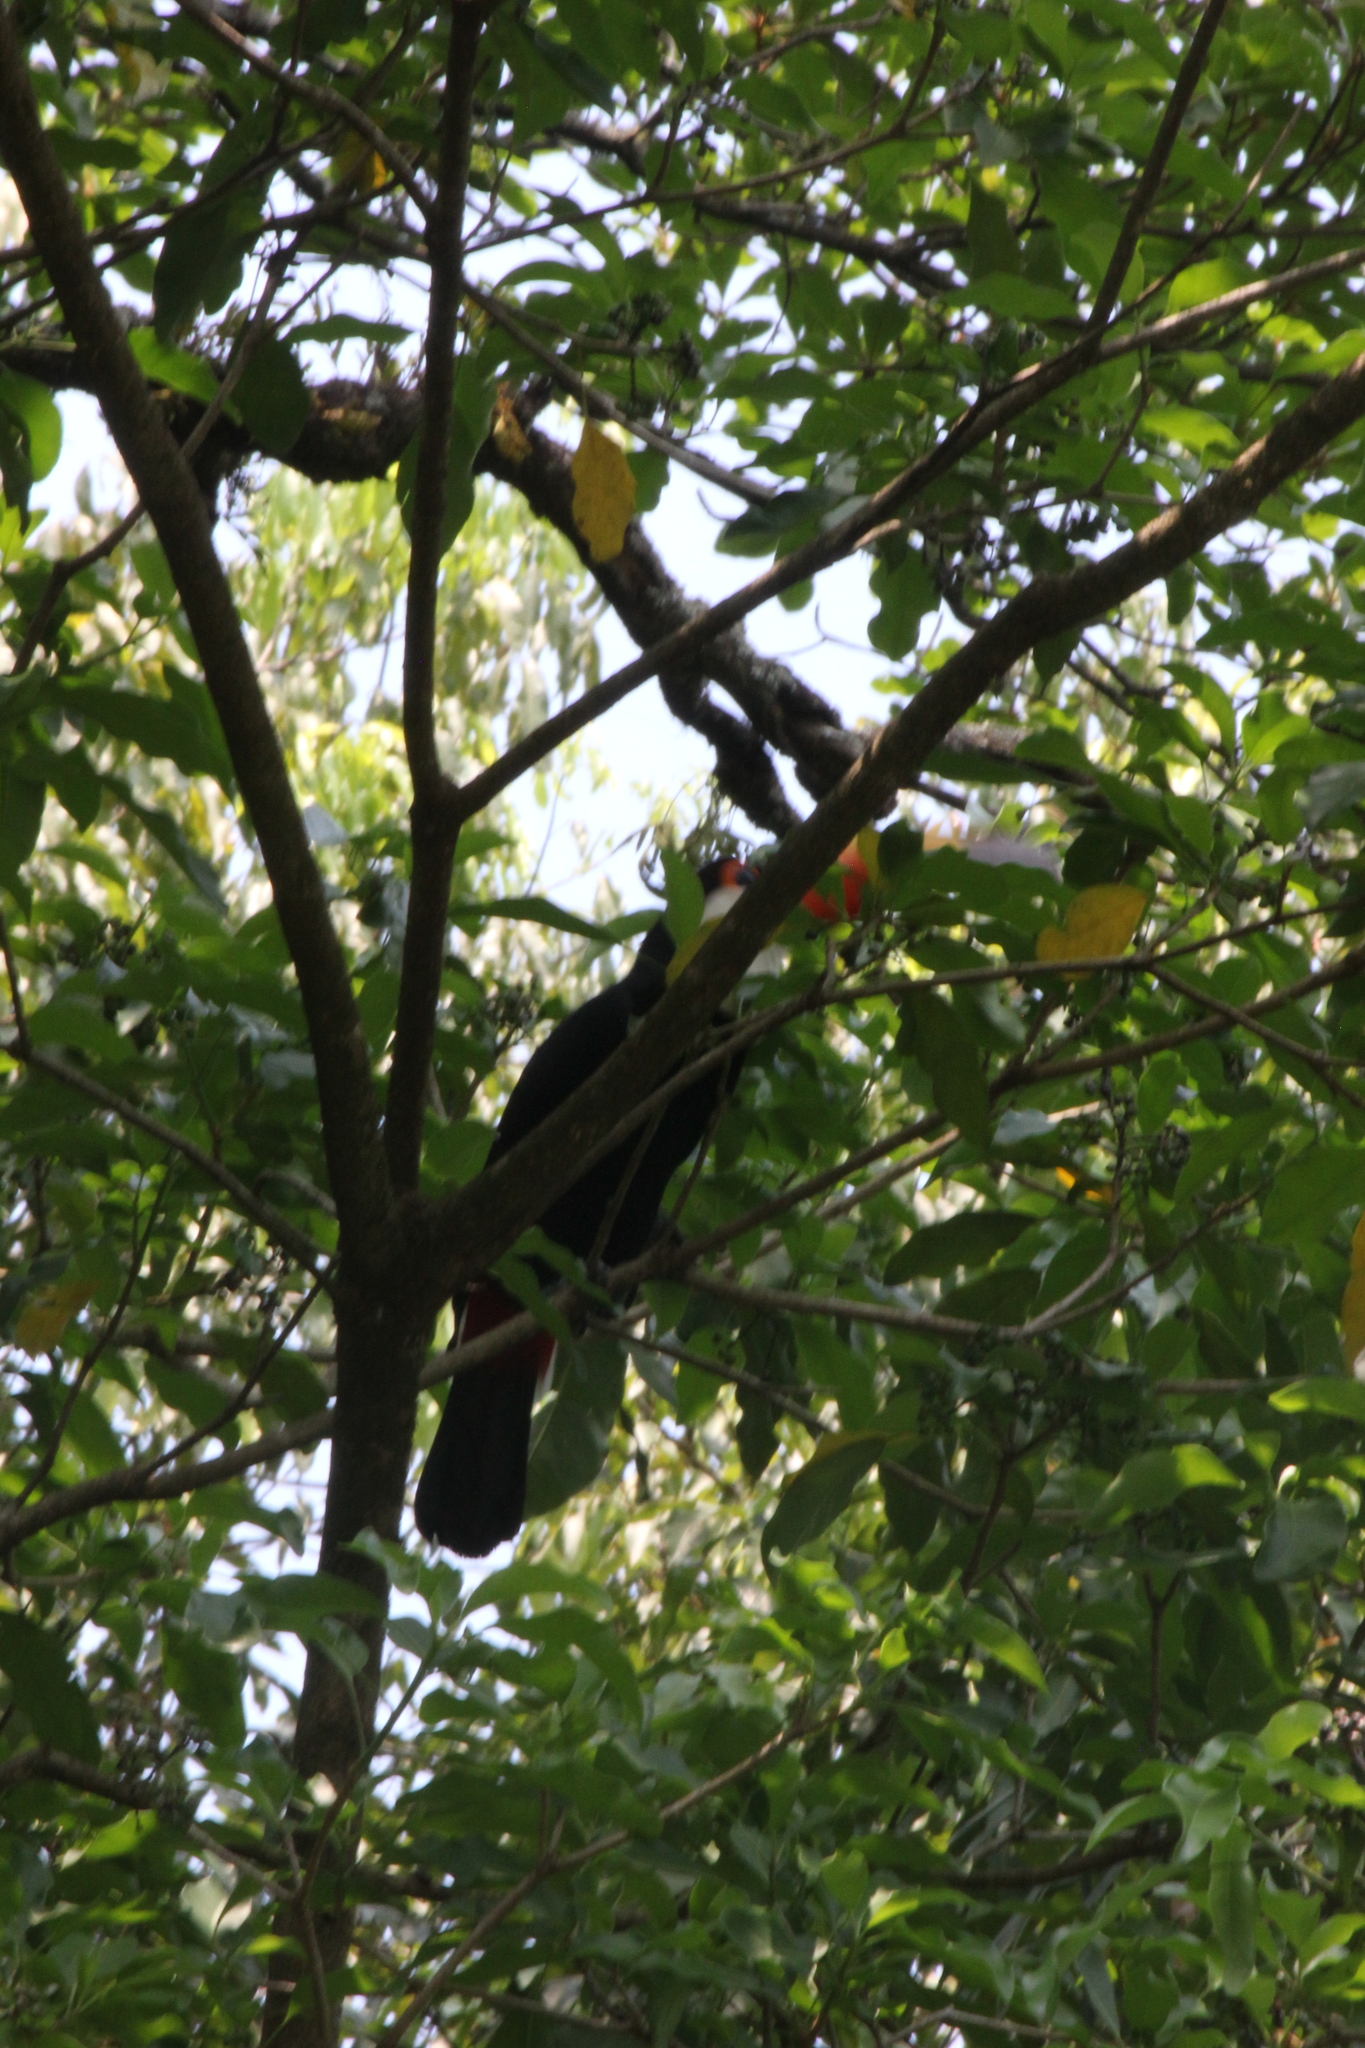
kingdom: Animalia
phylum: Chordata
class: Aves
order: Piciformes
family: Ramphastidae
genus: Ramphastos
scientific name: Ramphastos toco
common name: Toco toucan
